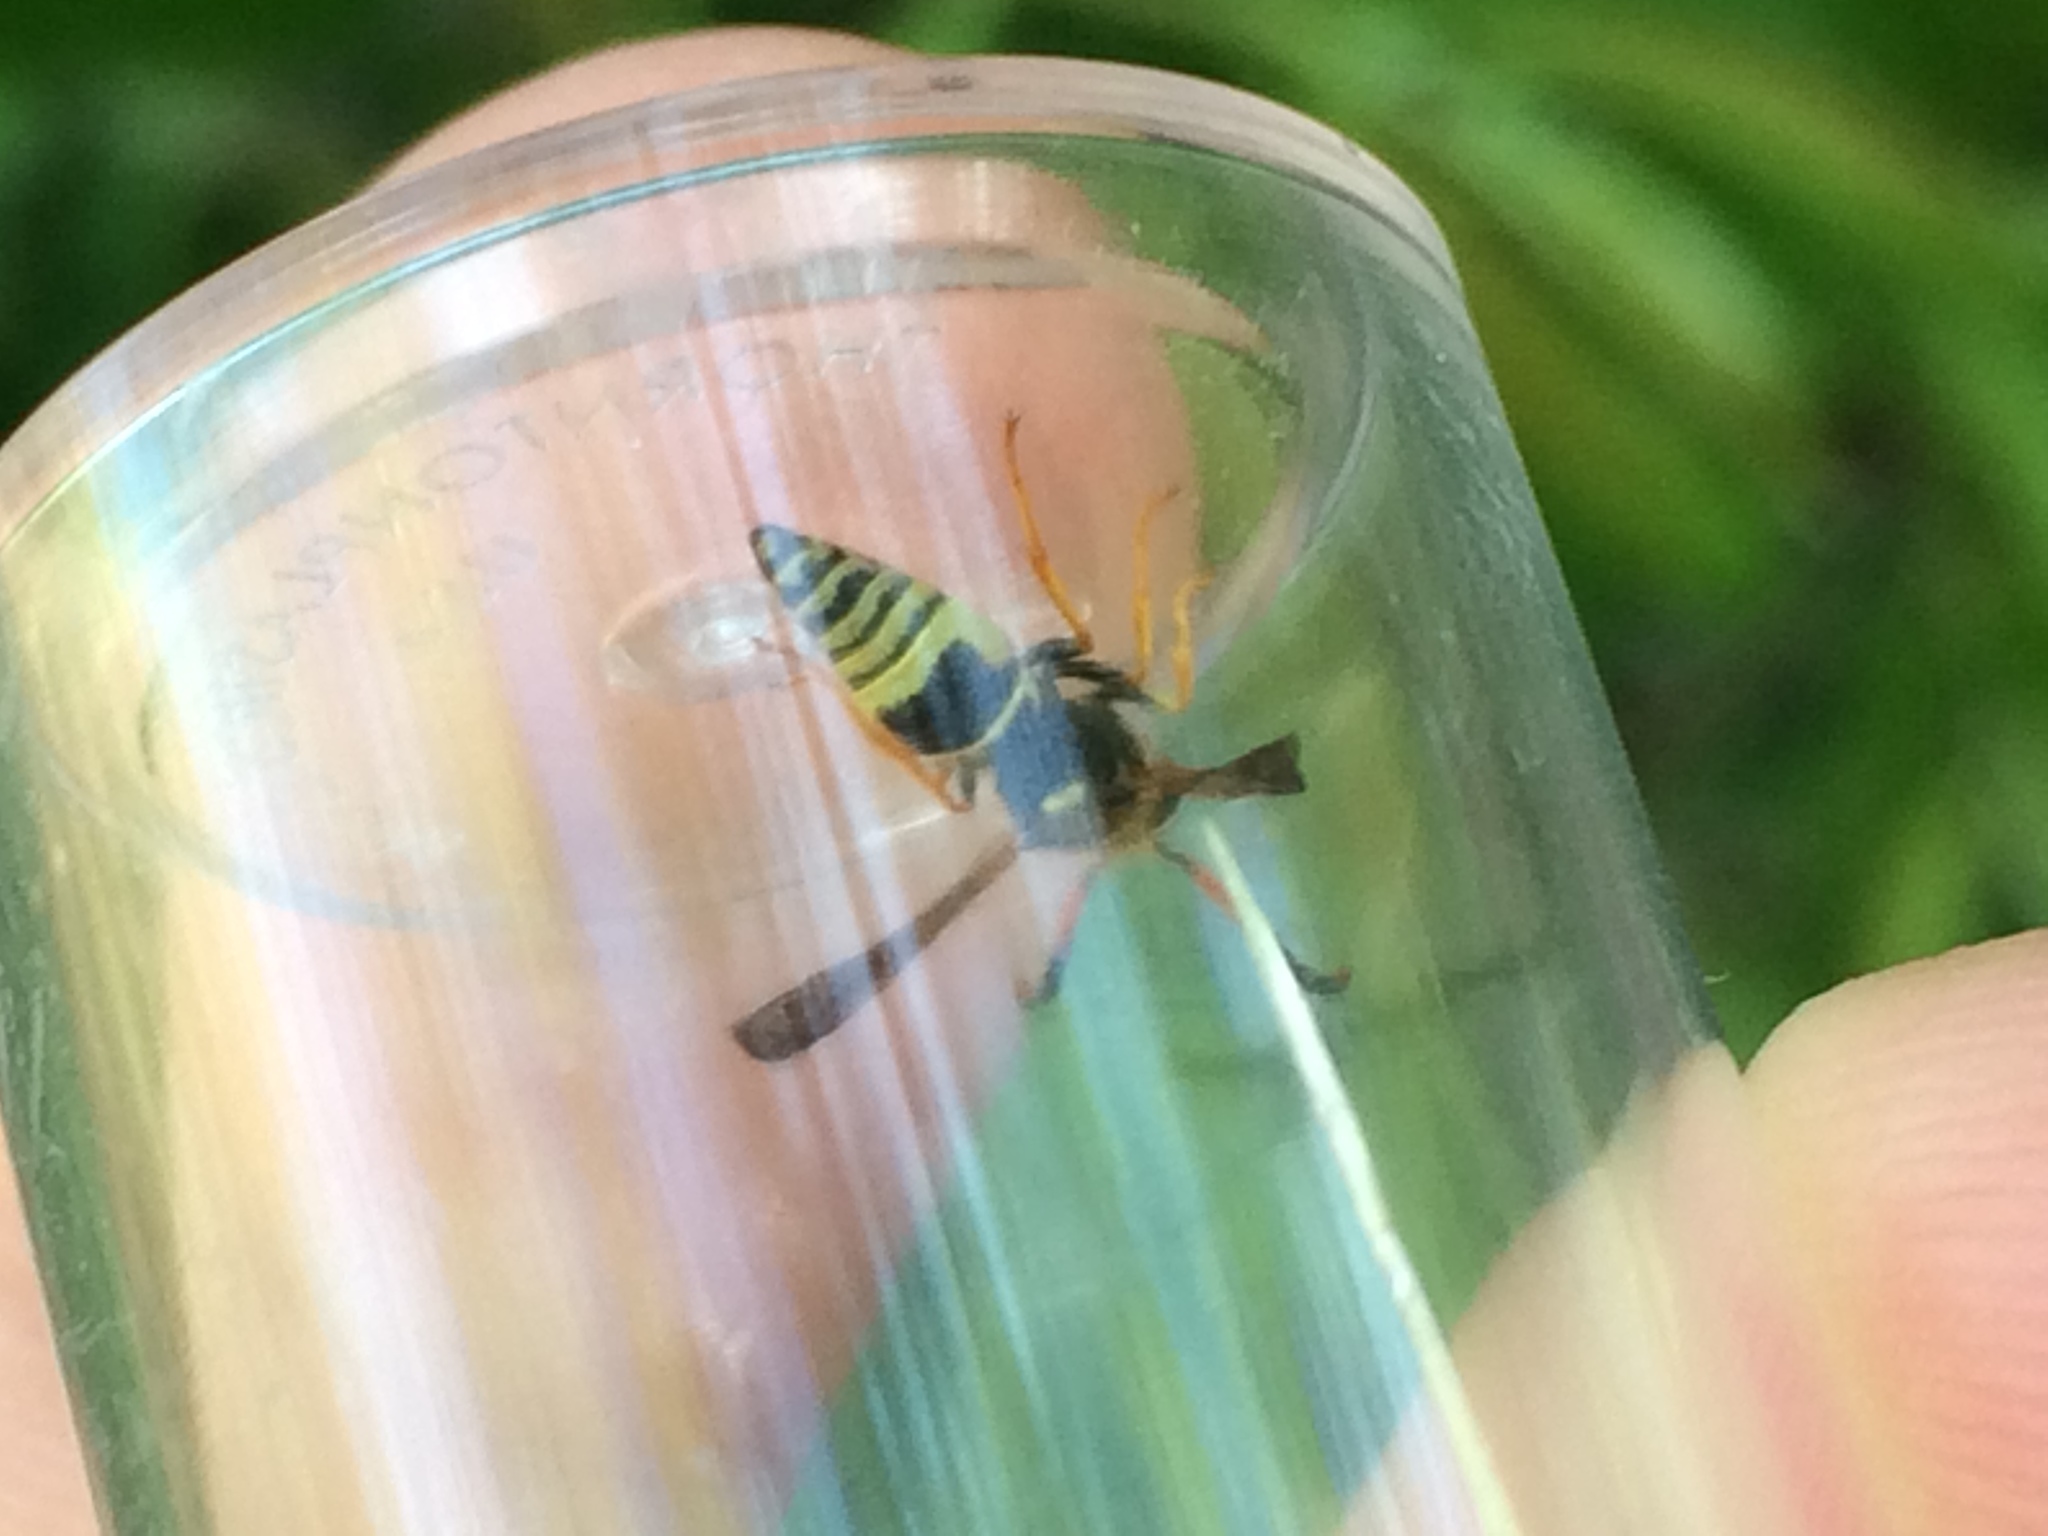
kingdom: Animalia
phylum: Arthropoda
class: Insecta
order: Hymenoptera
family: Vespidae
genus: Ancistrocerus
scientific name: Ancistrocerus
